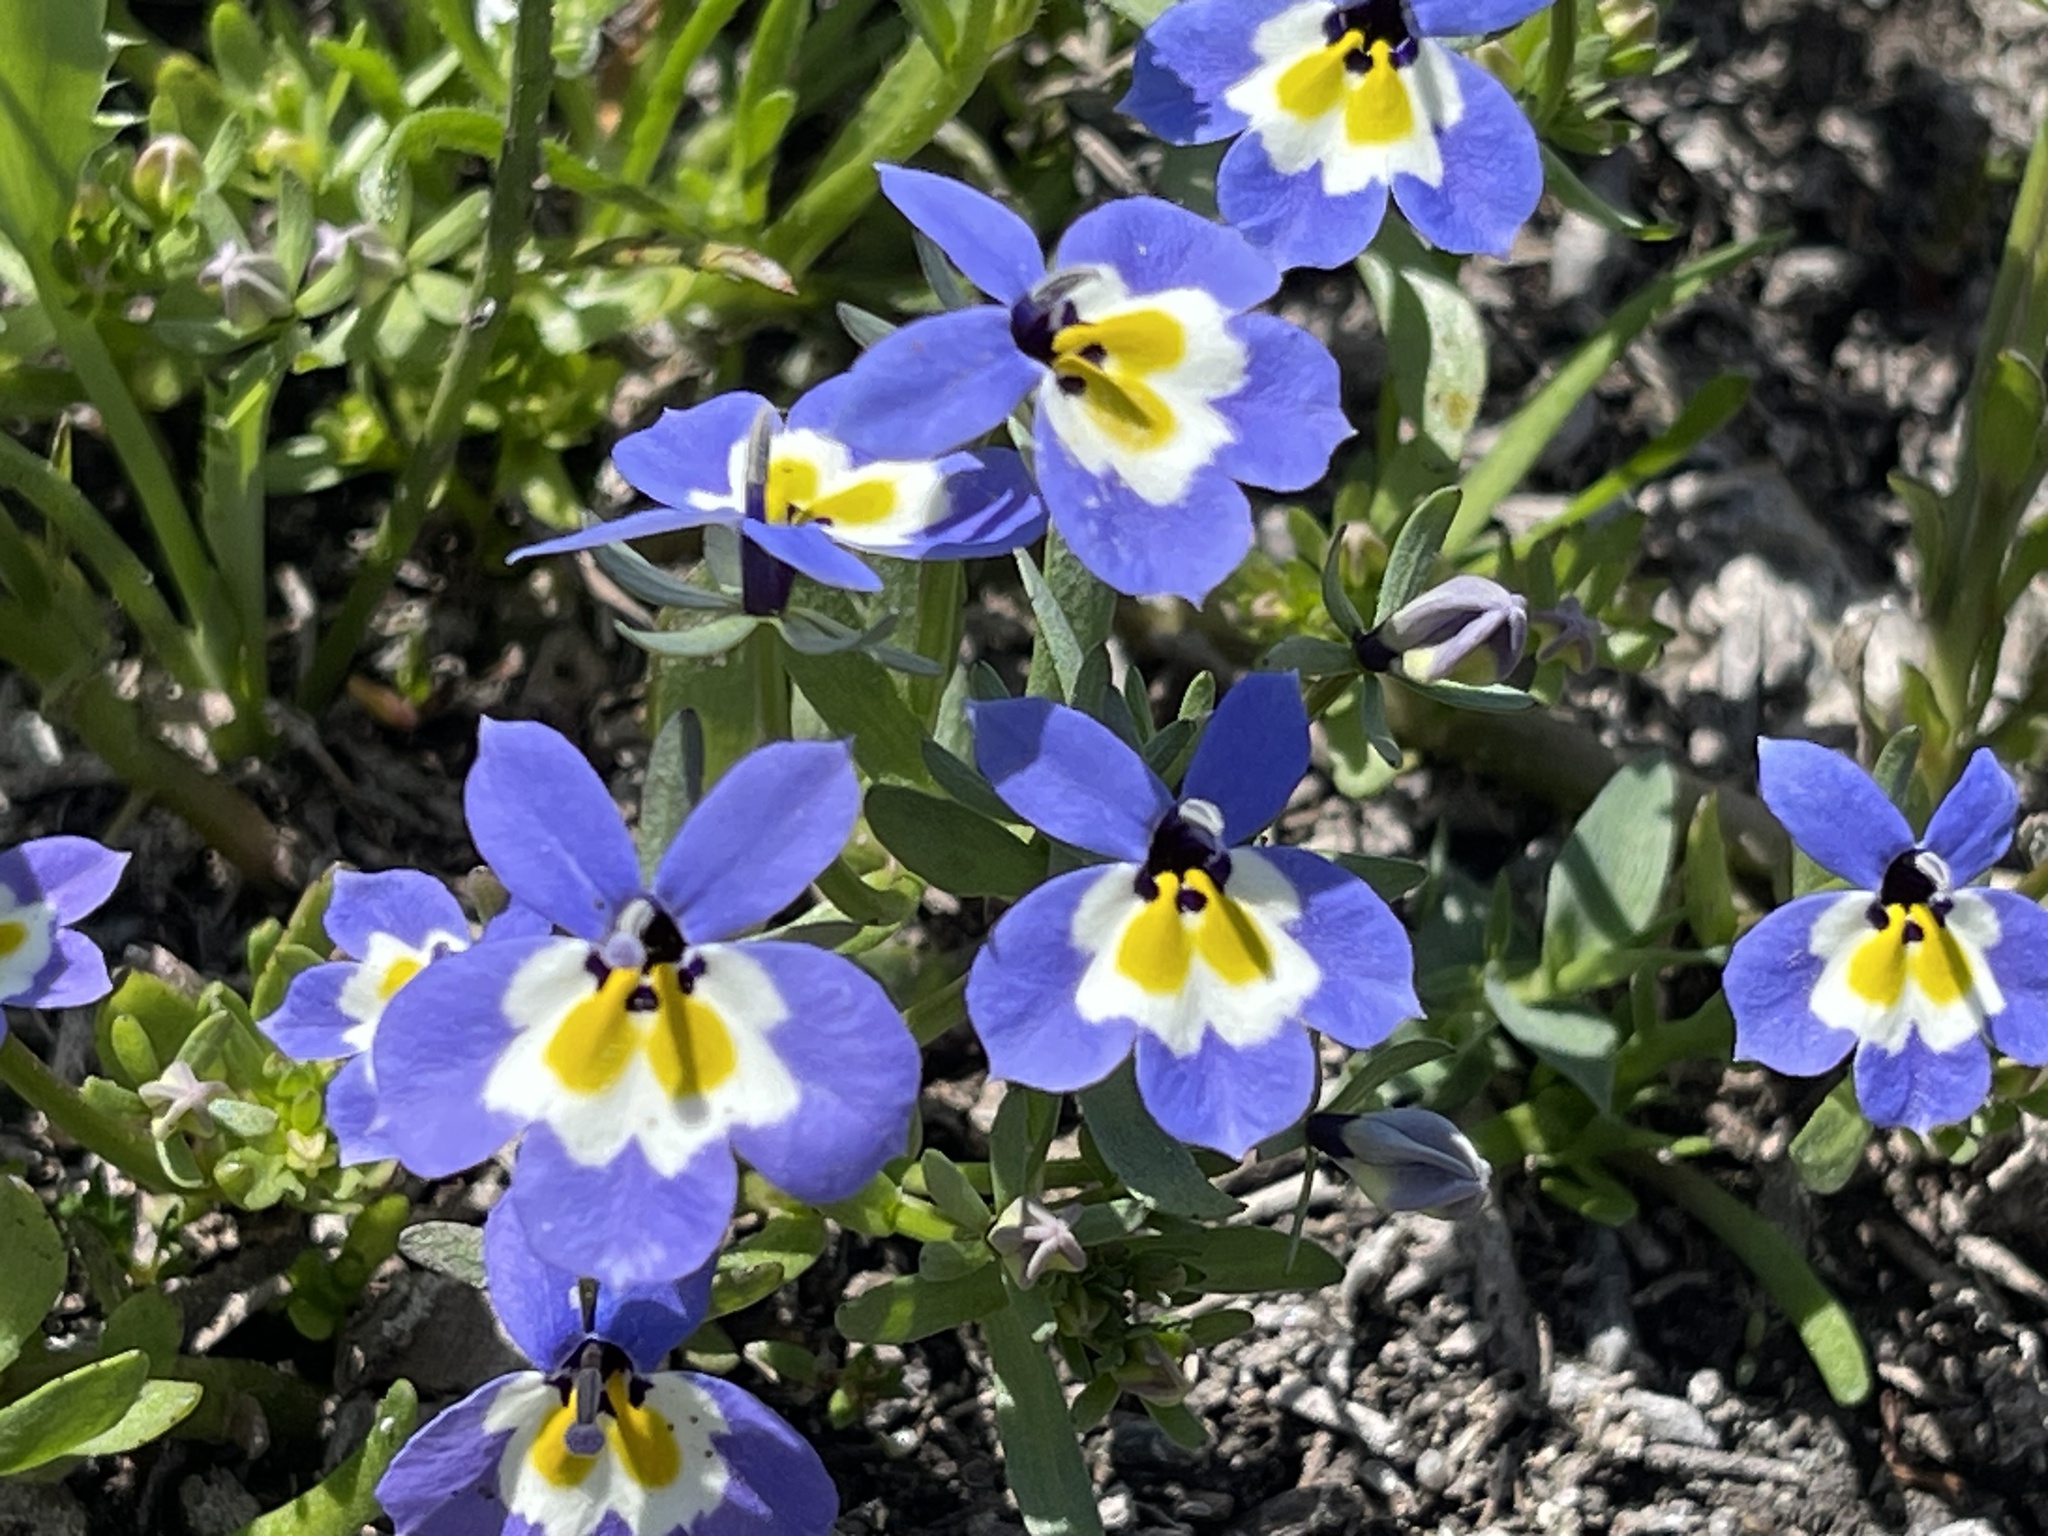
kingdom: Plantae
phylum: Tracheophyta
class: Magnoliopsida
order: Asterales
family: Campanulaceae
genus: Downingia
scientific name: Downingia pulchella
